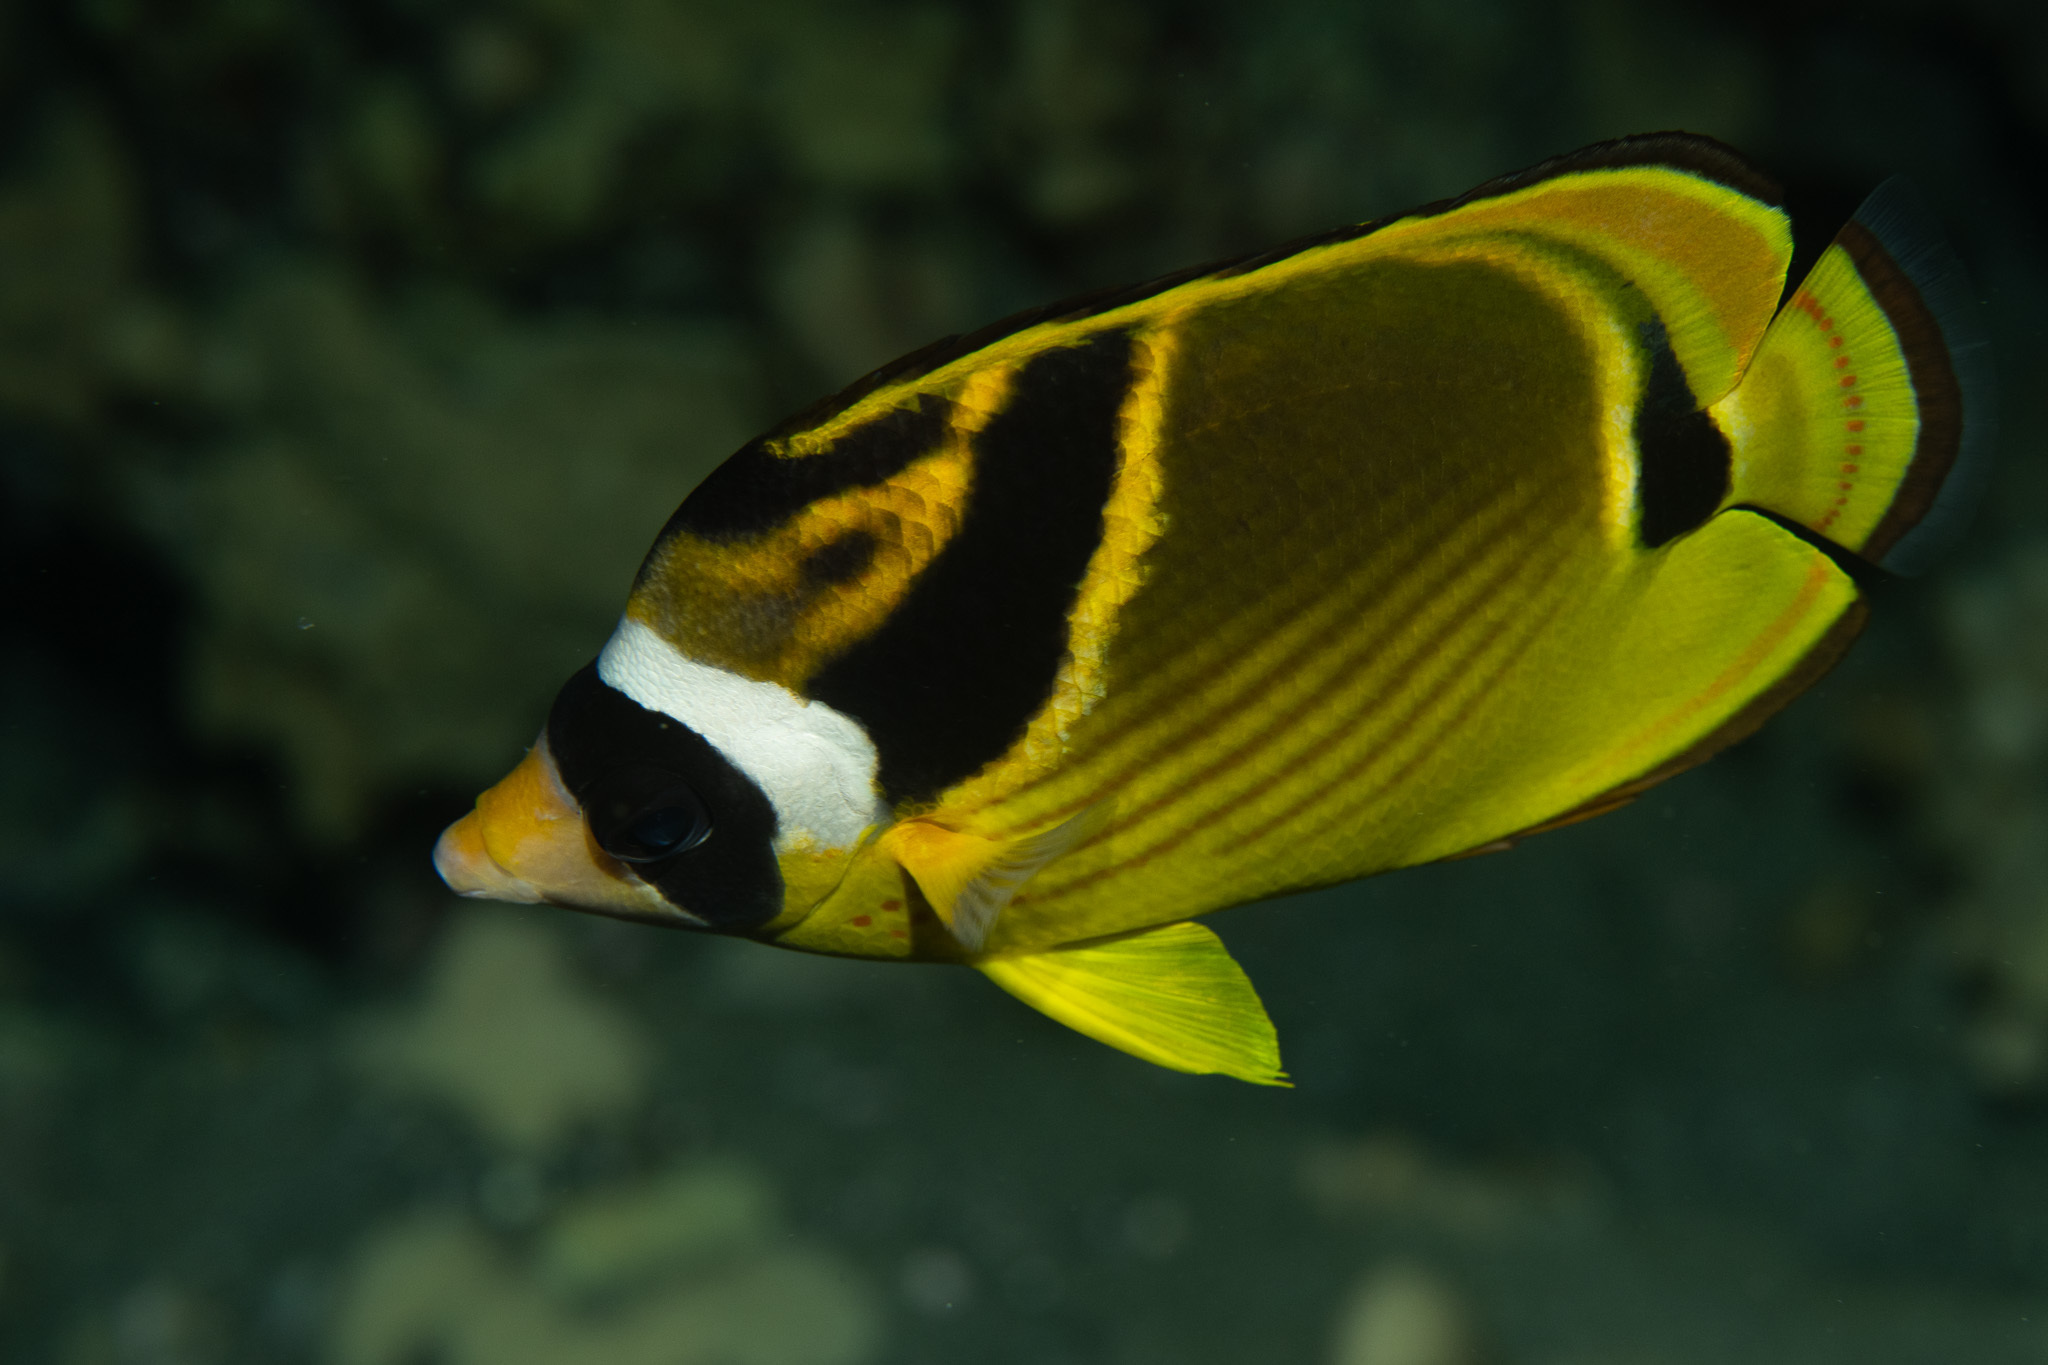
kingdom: Animalia
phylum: Chordata
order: Perciformes
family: Chaetodontidae
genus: Chaetodon
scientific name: Chaetodon lunula
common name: Raccoon butterflyfish
